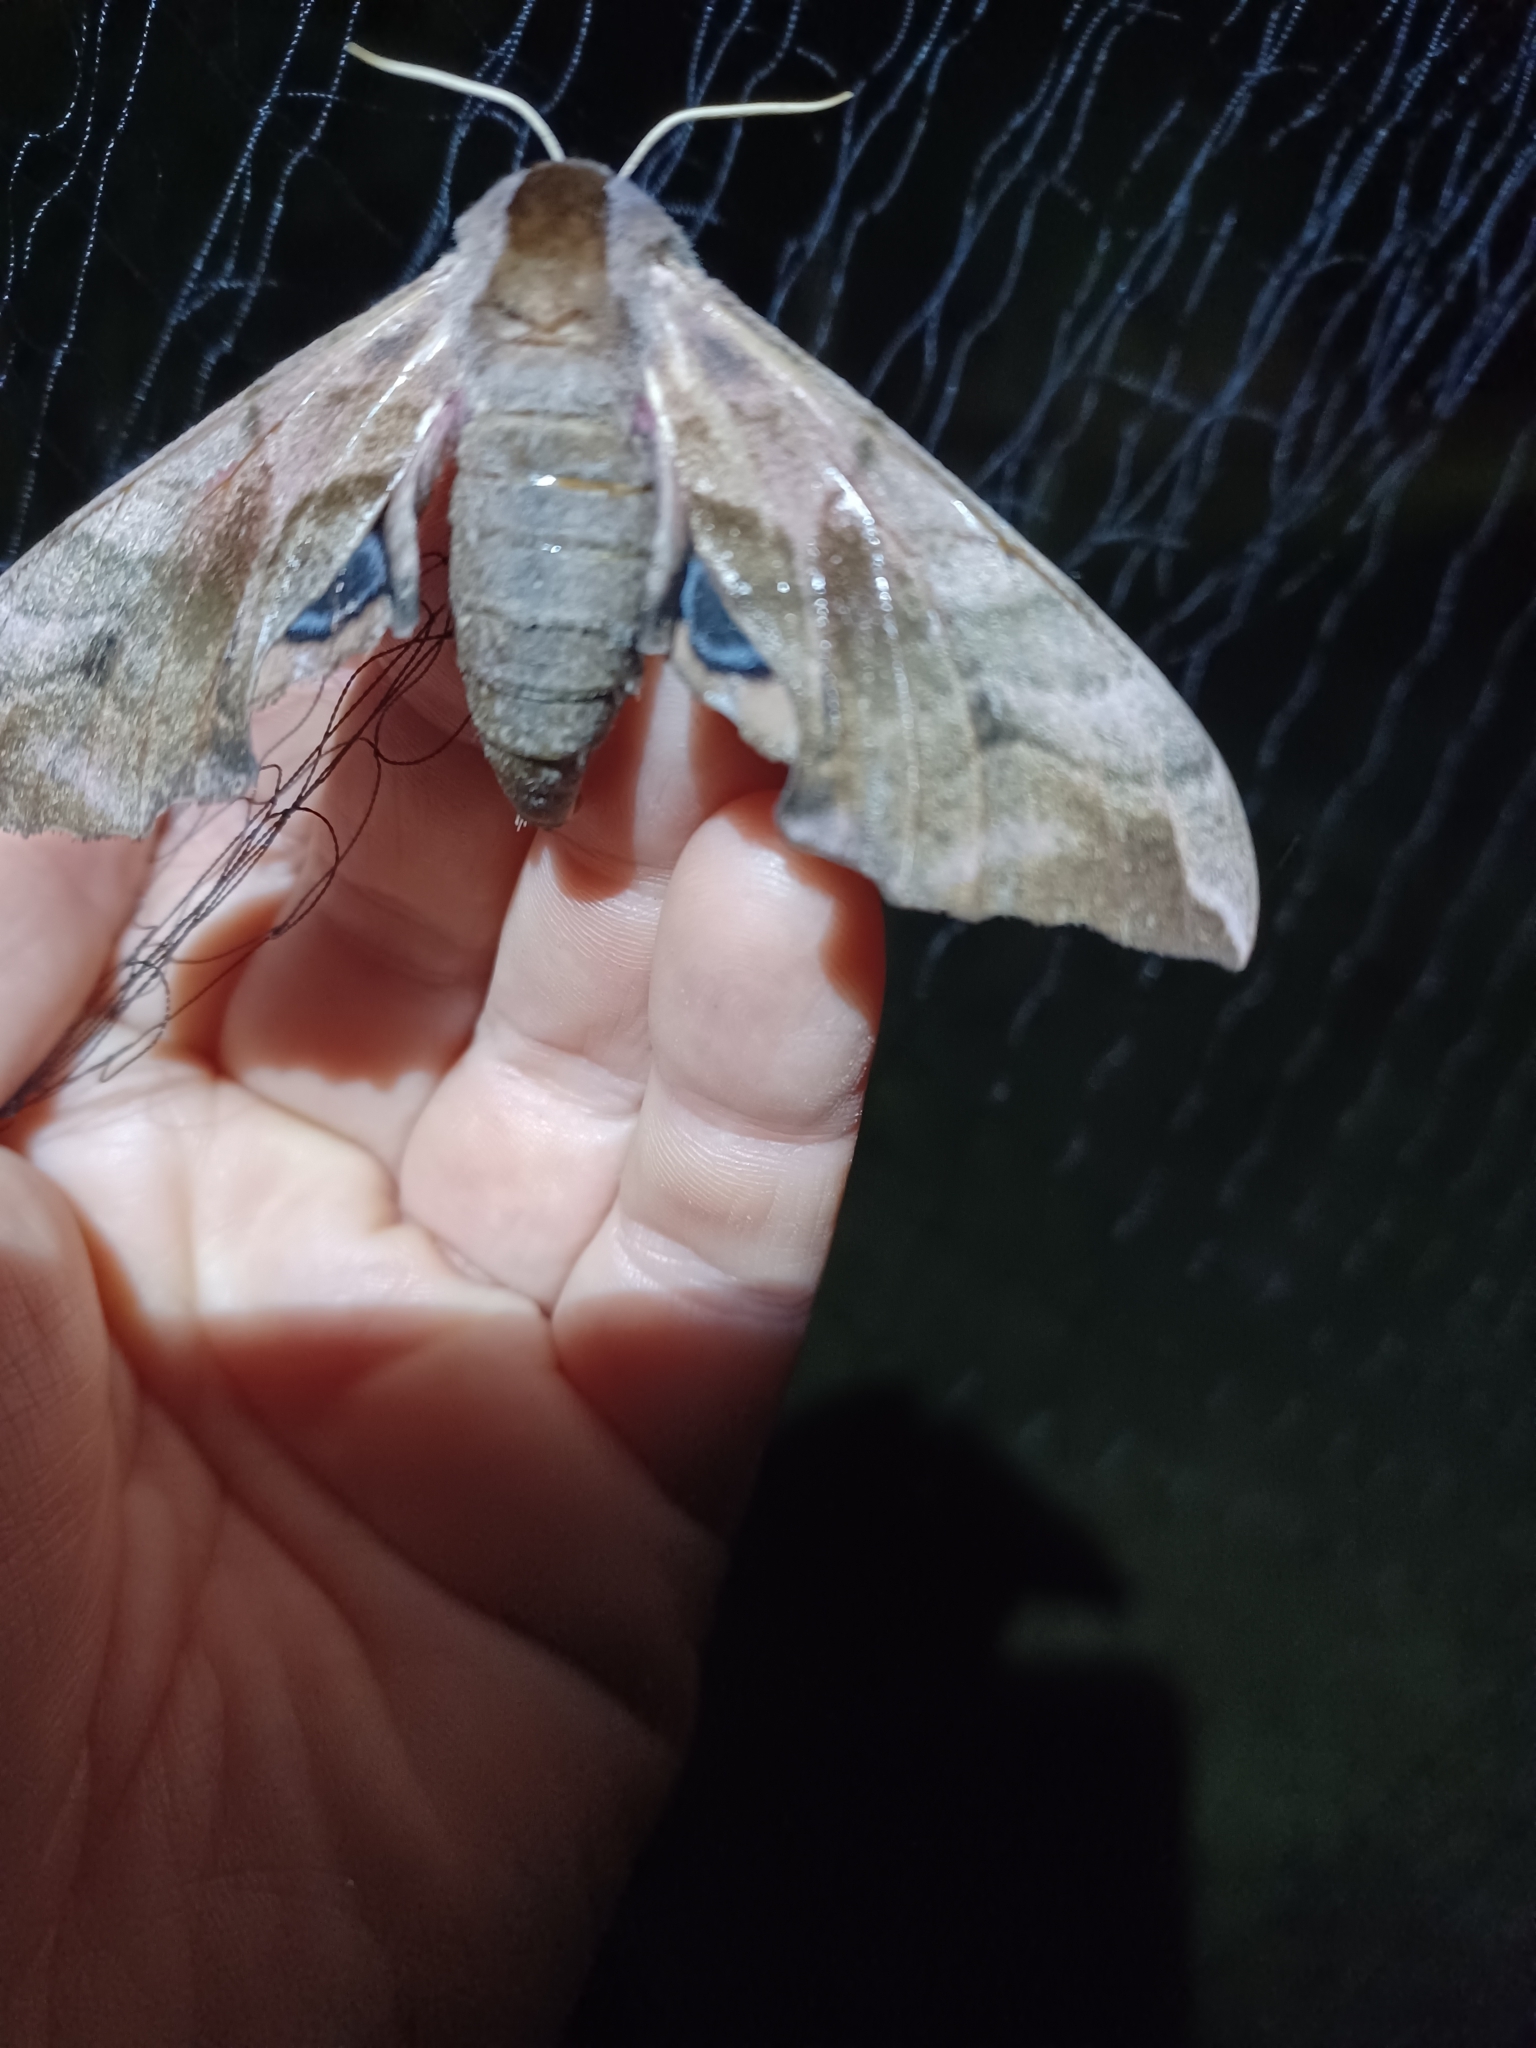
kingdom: Animalia
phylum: Arthropoda
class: Insecta
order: Lepidoptera
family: Sphingidae
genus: Smerinthus
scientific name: Smerinthus ocellata
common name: Eyed hawk-moth
